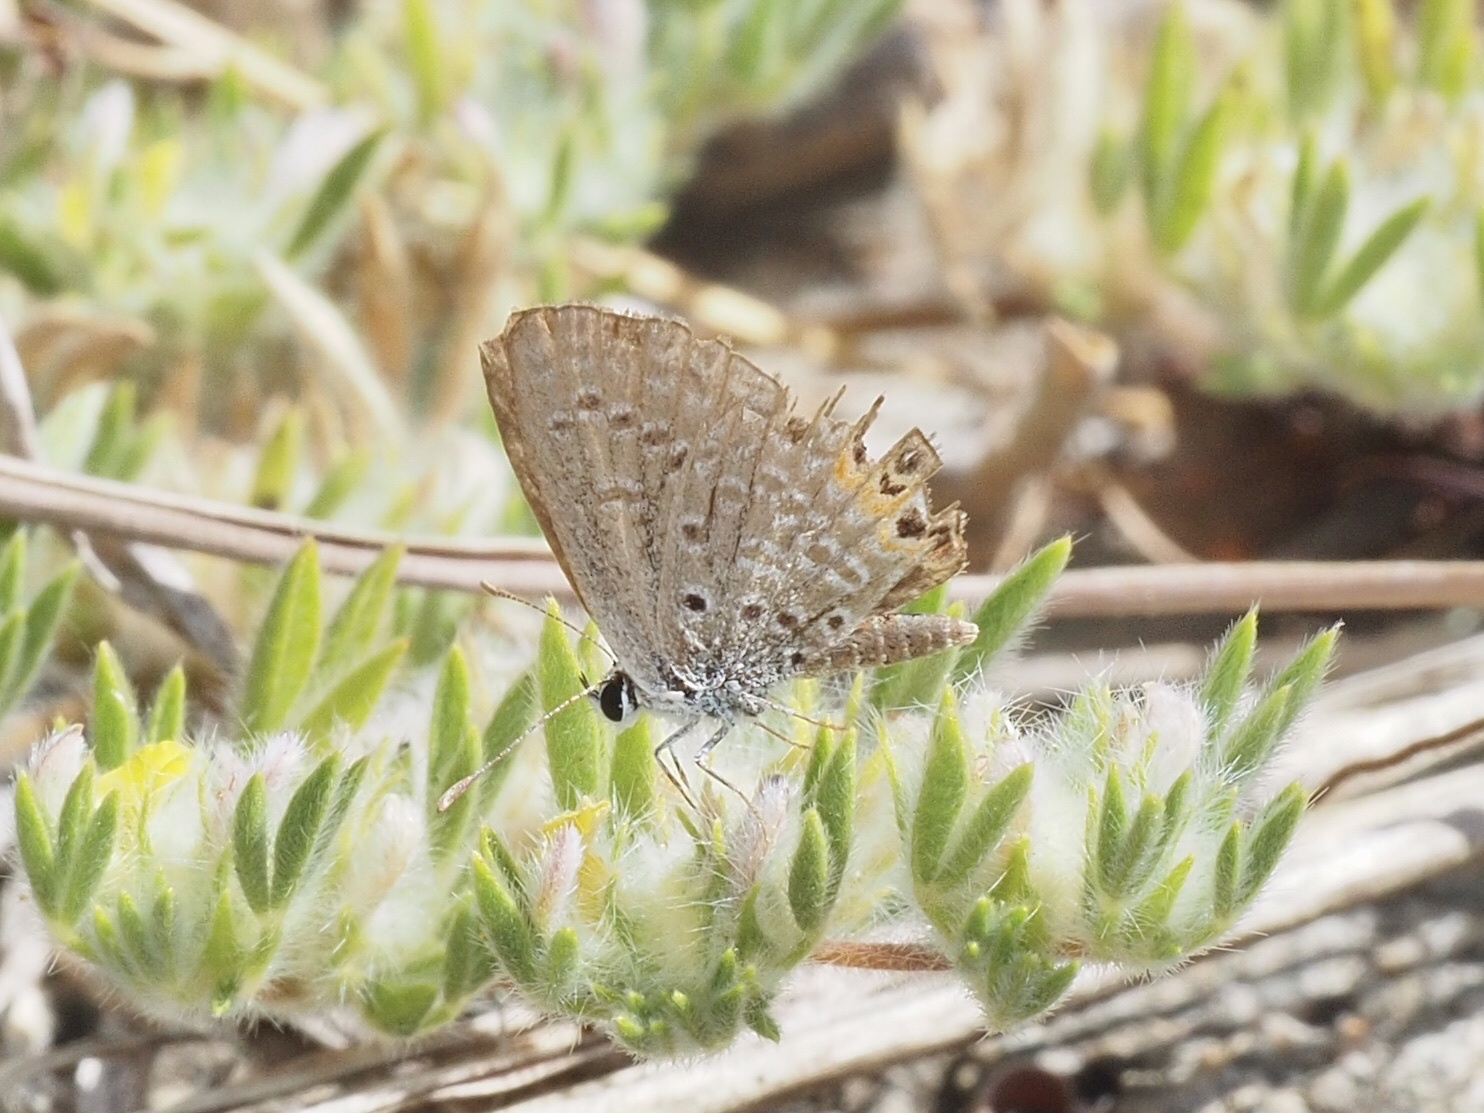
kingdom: Animalia
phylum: Arthropoda
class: Insecta
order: Lepidoptera
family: Lycaenidae
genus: Freyeria
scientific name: Freyeria trochylus
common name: Grass jewel
